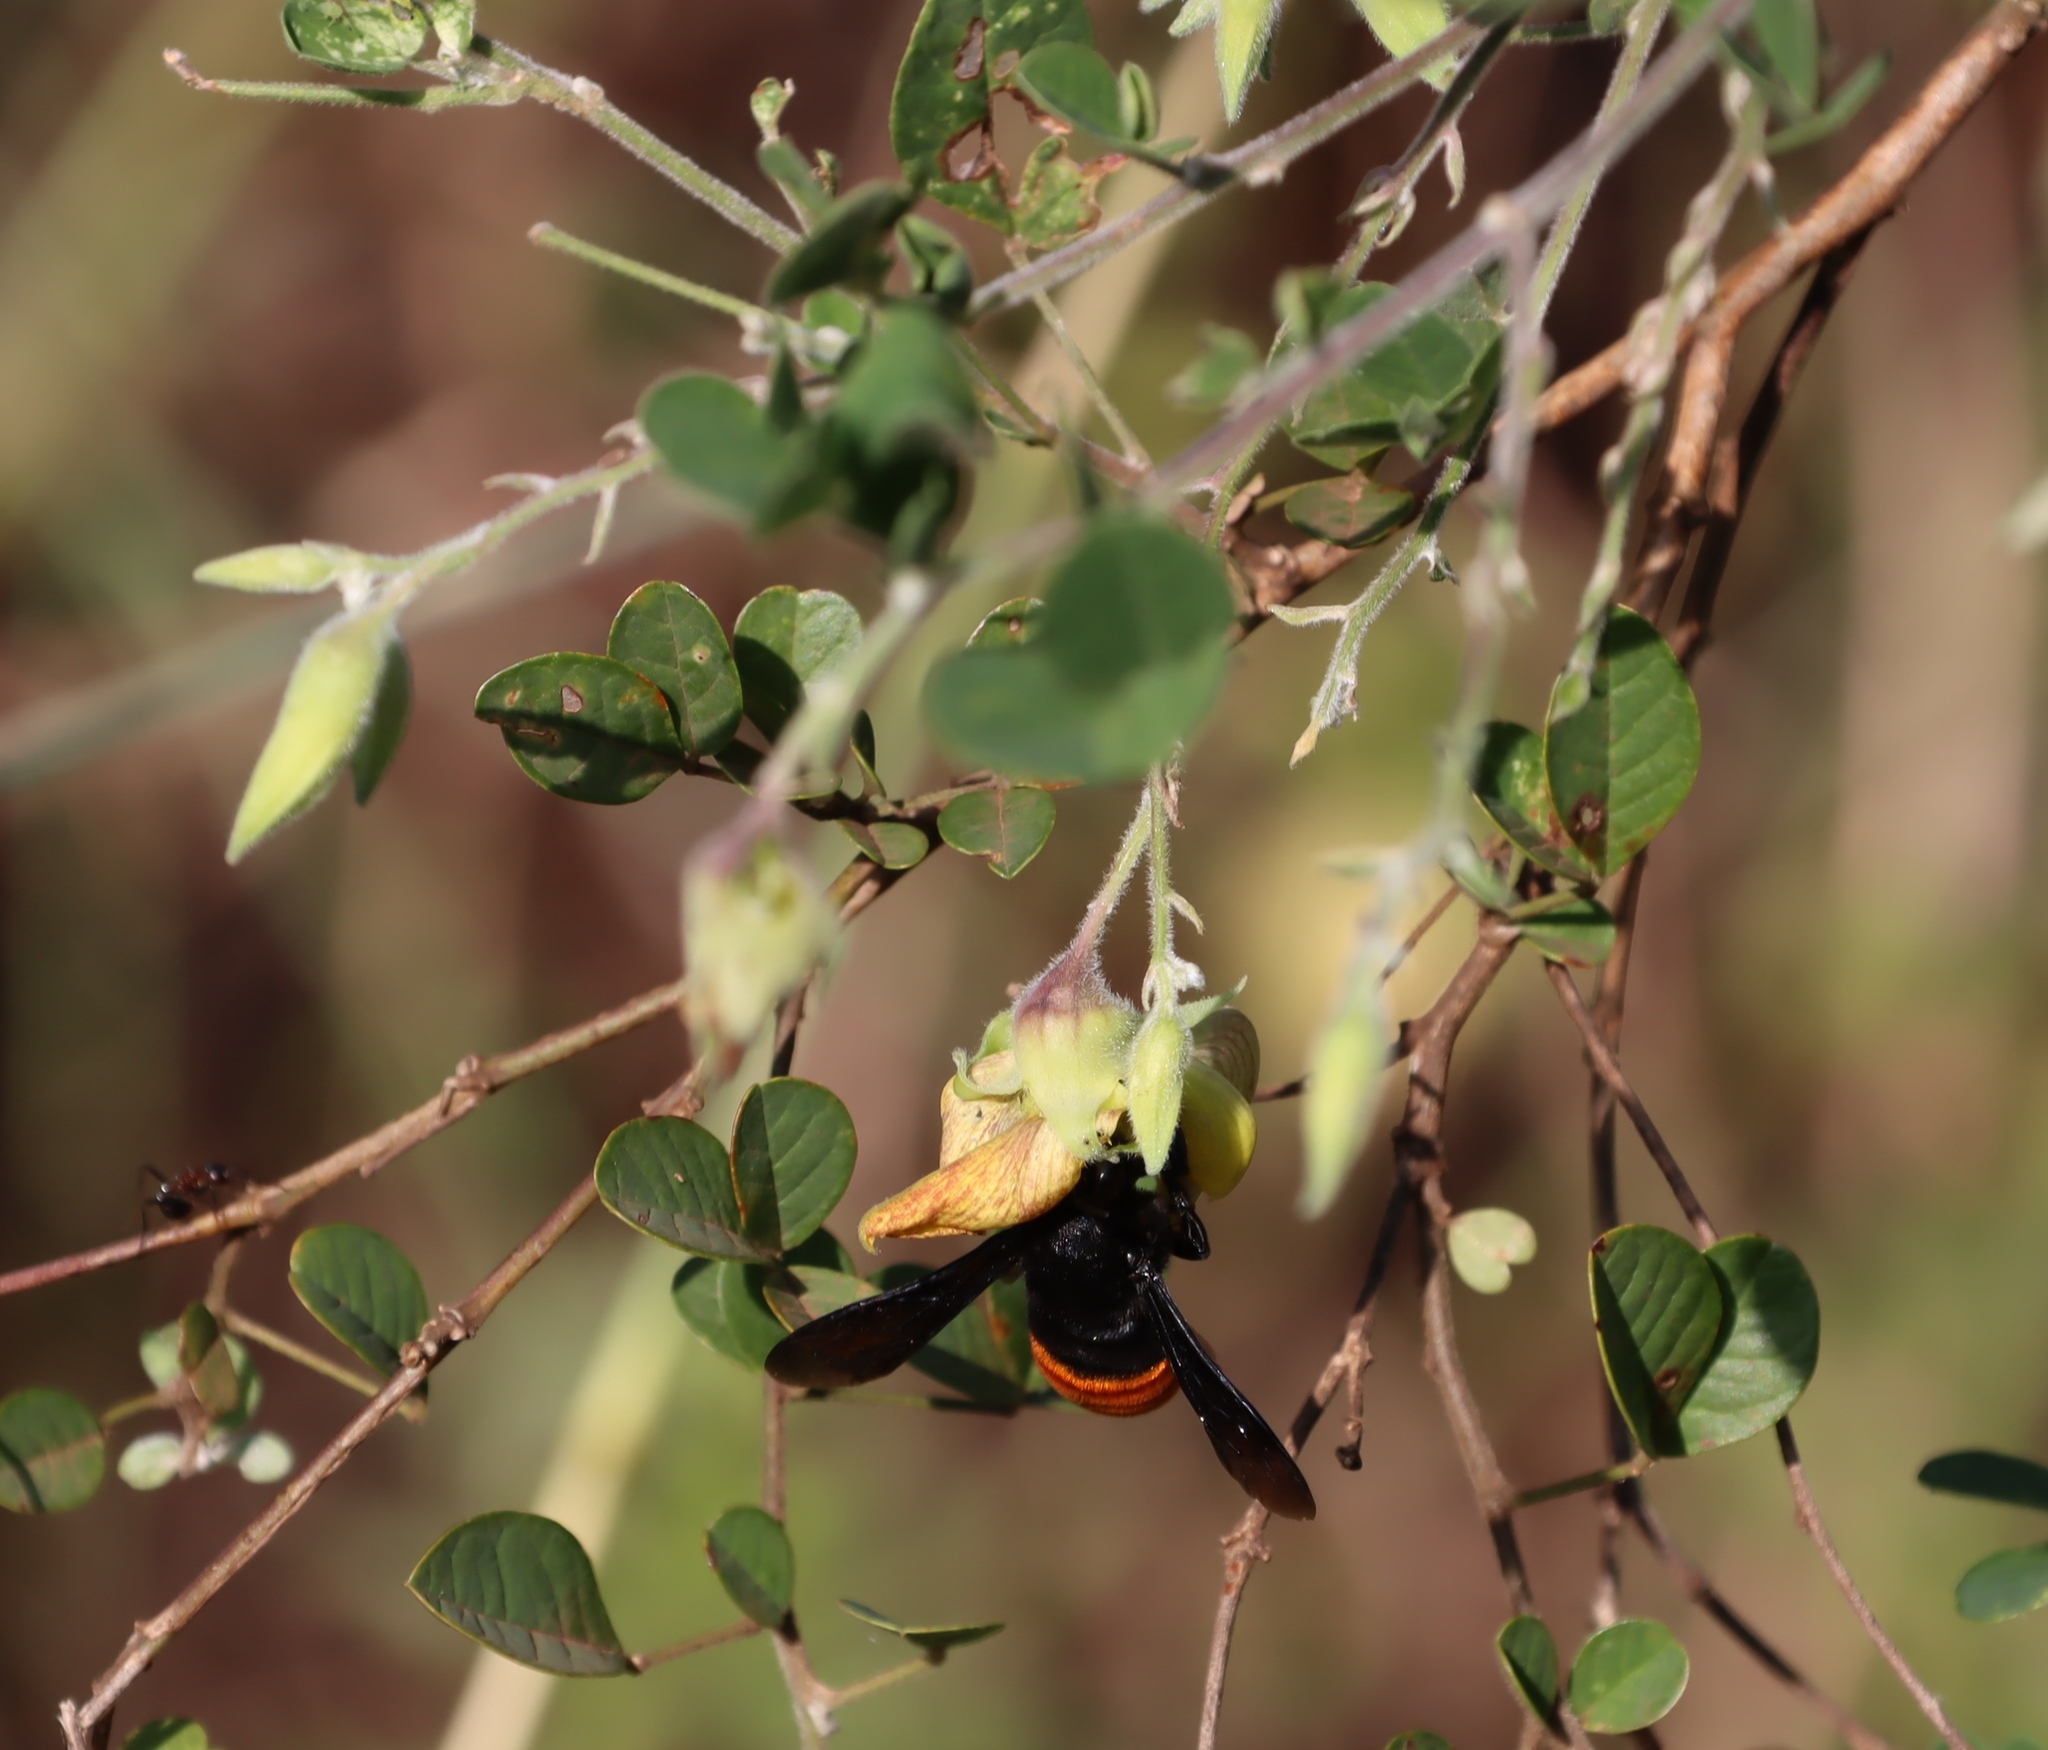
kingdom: Plantae
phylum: Tracheophyta
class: Magnoliopsida
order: Fabales
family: Fabaceae
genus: Crotalaria
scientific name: Crotalaria monteiroi
